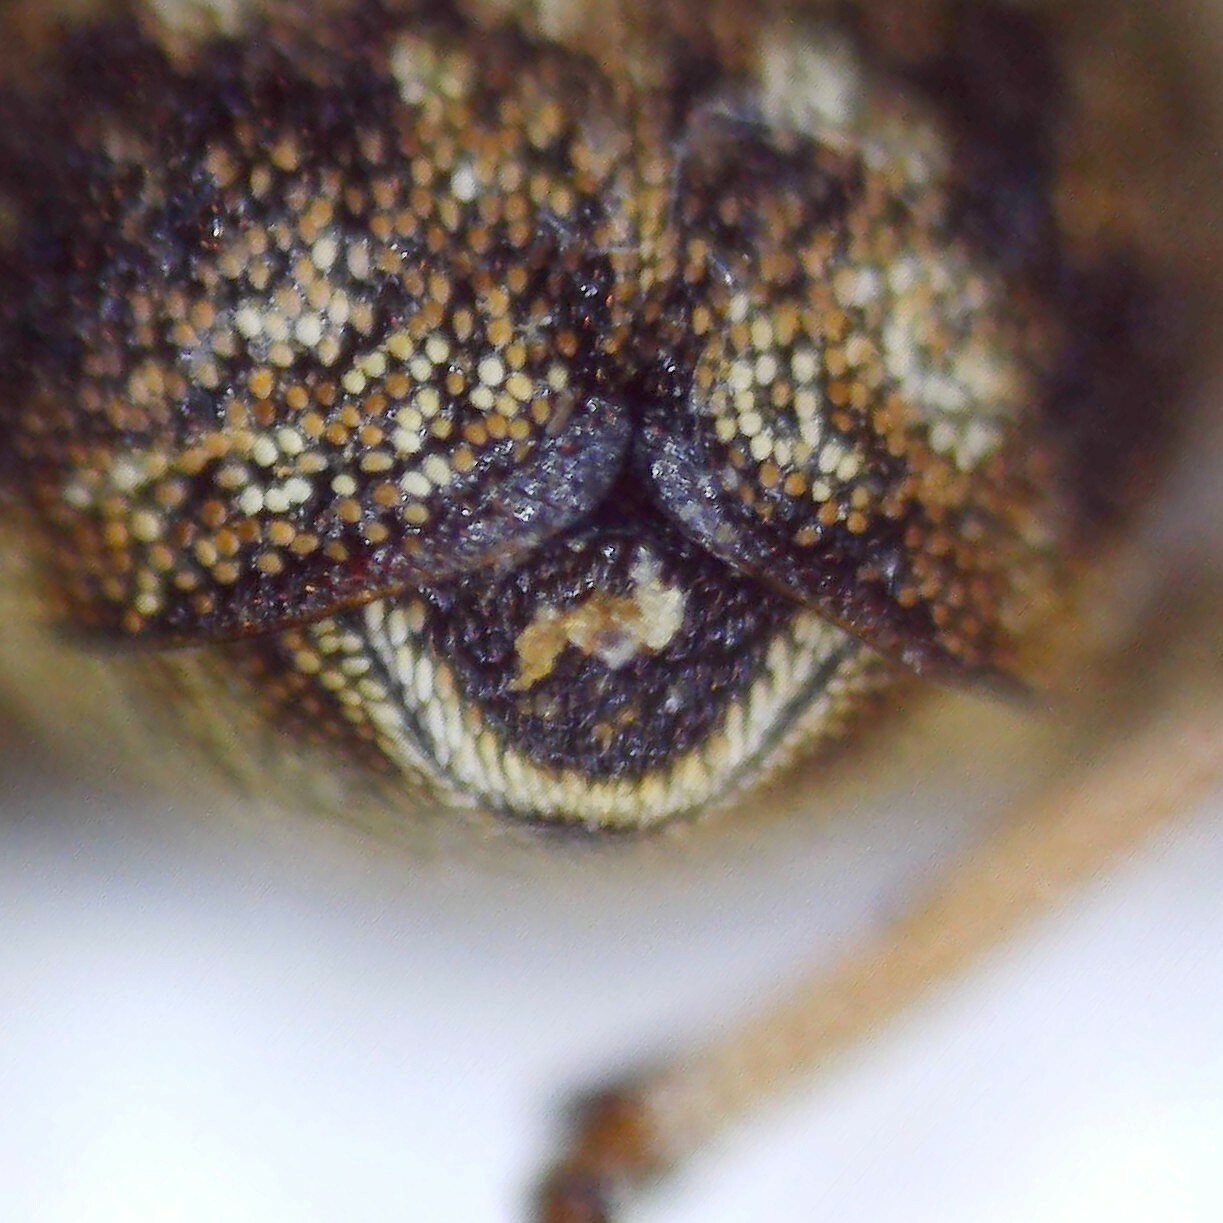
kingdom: Animalia
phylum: Arthropoda
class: Insecta
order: Coleoptera
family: Curculionidae
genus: Phytobius
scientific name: Phytobius waltoni
